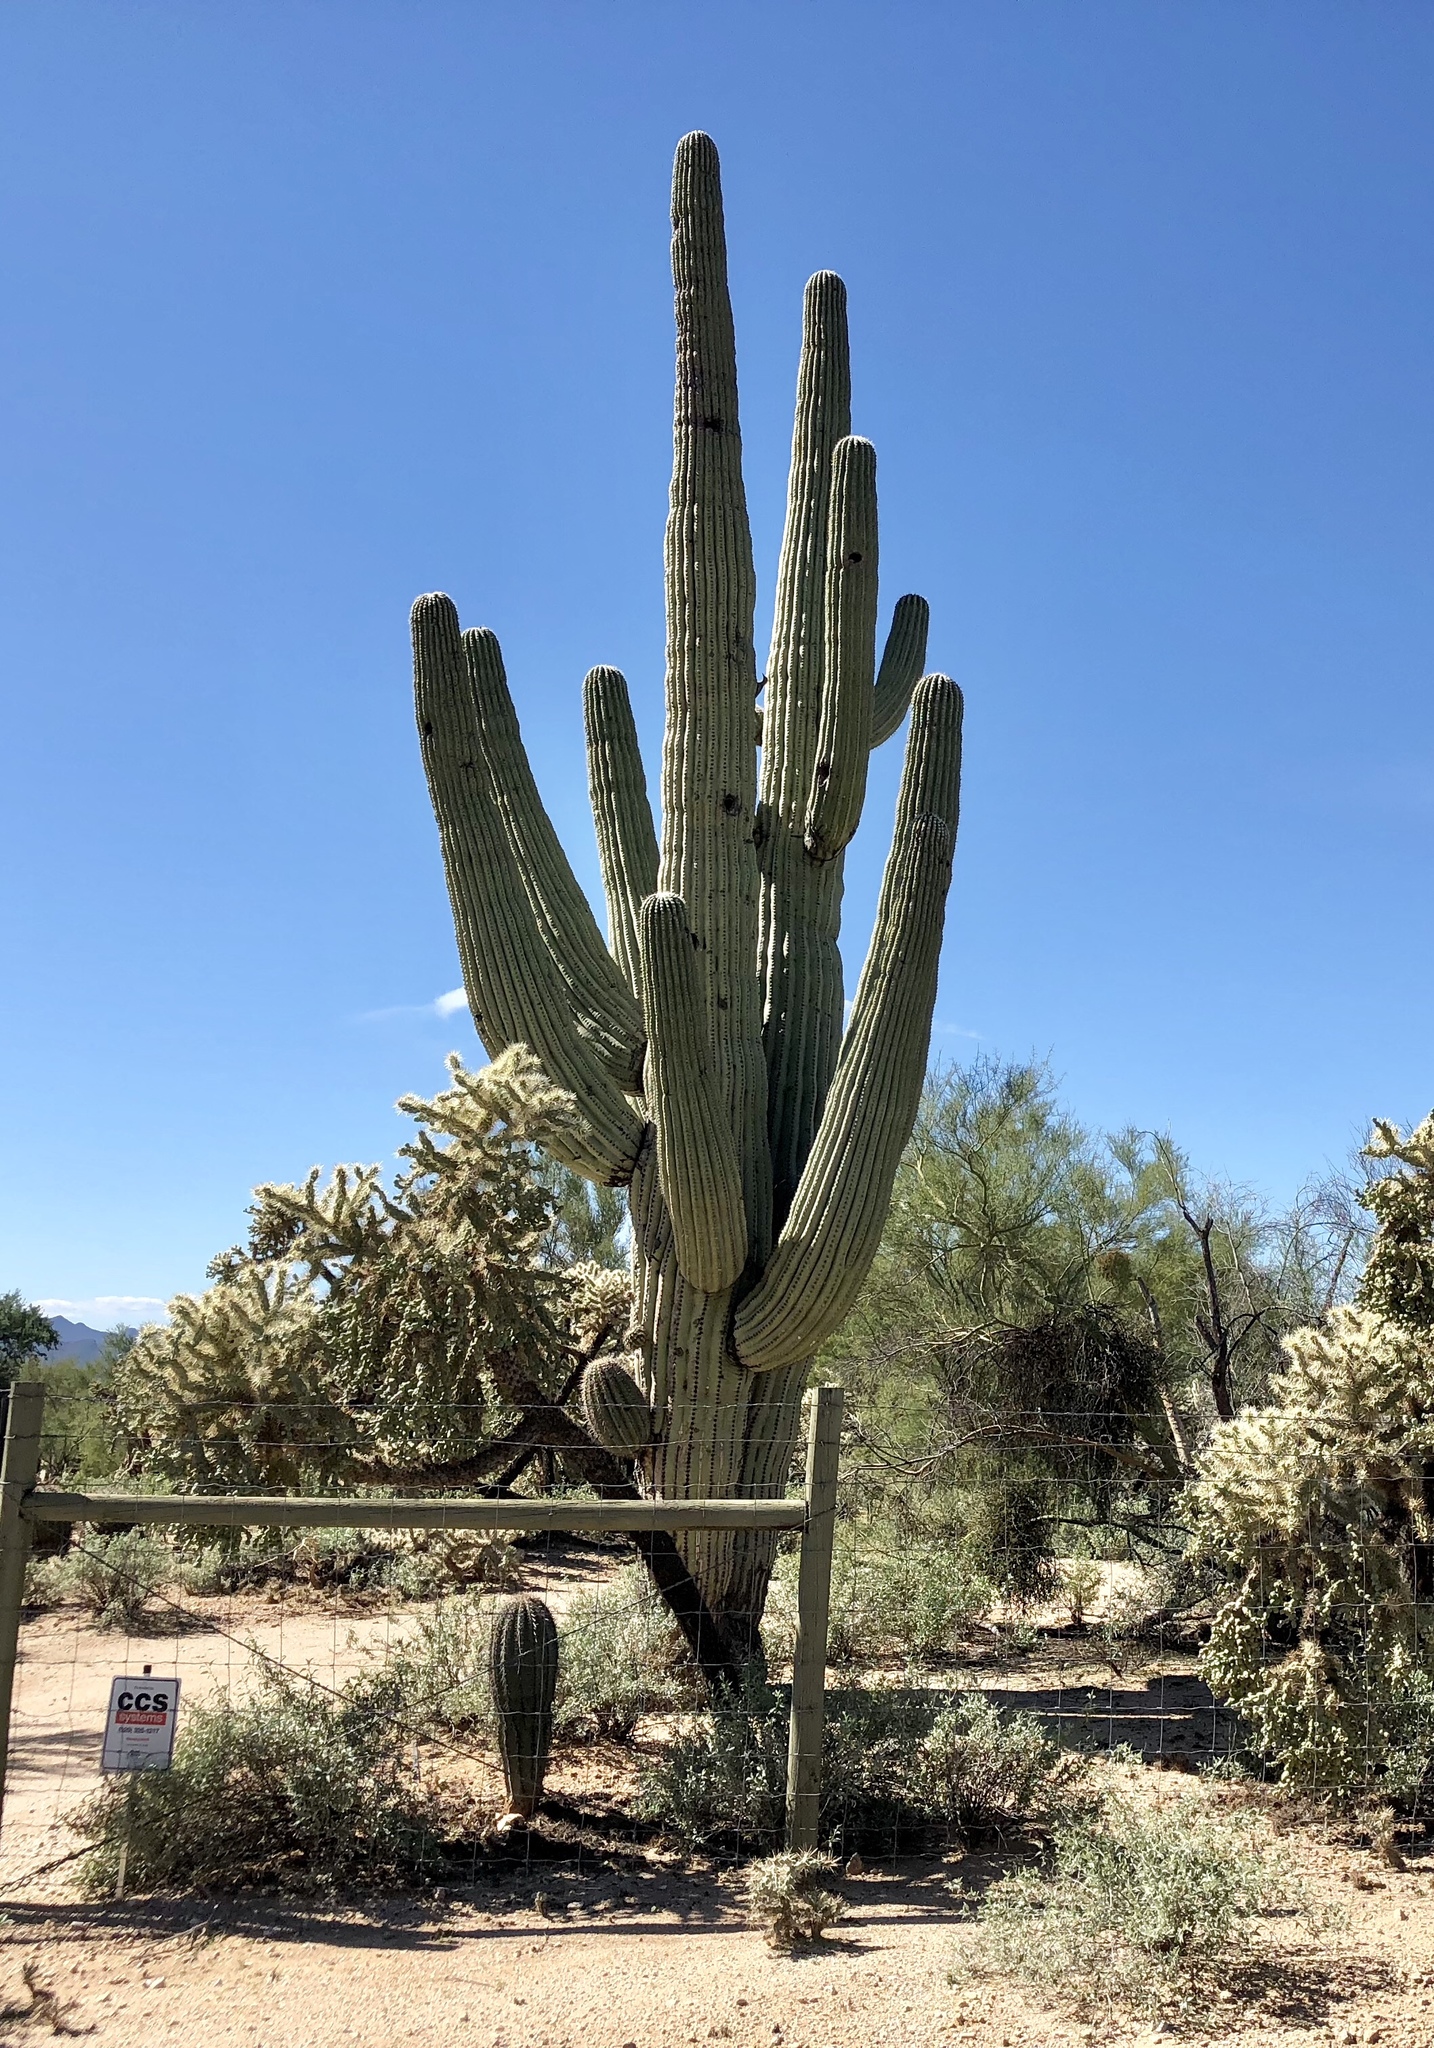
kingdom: Plantae
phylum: Tracheophyta
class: Magnoliopsida
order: Caryophyllales
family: Cactaceae
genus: Carnegiea
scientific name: Carnegiea gigantea
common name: Saguaro
